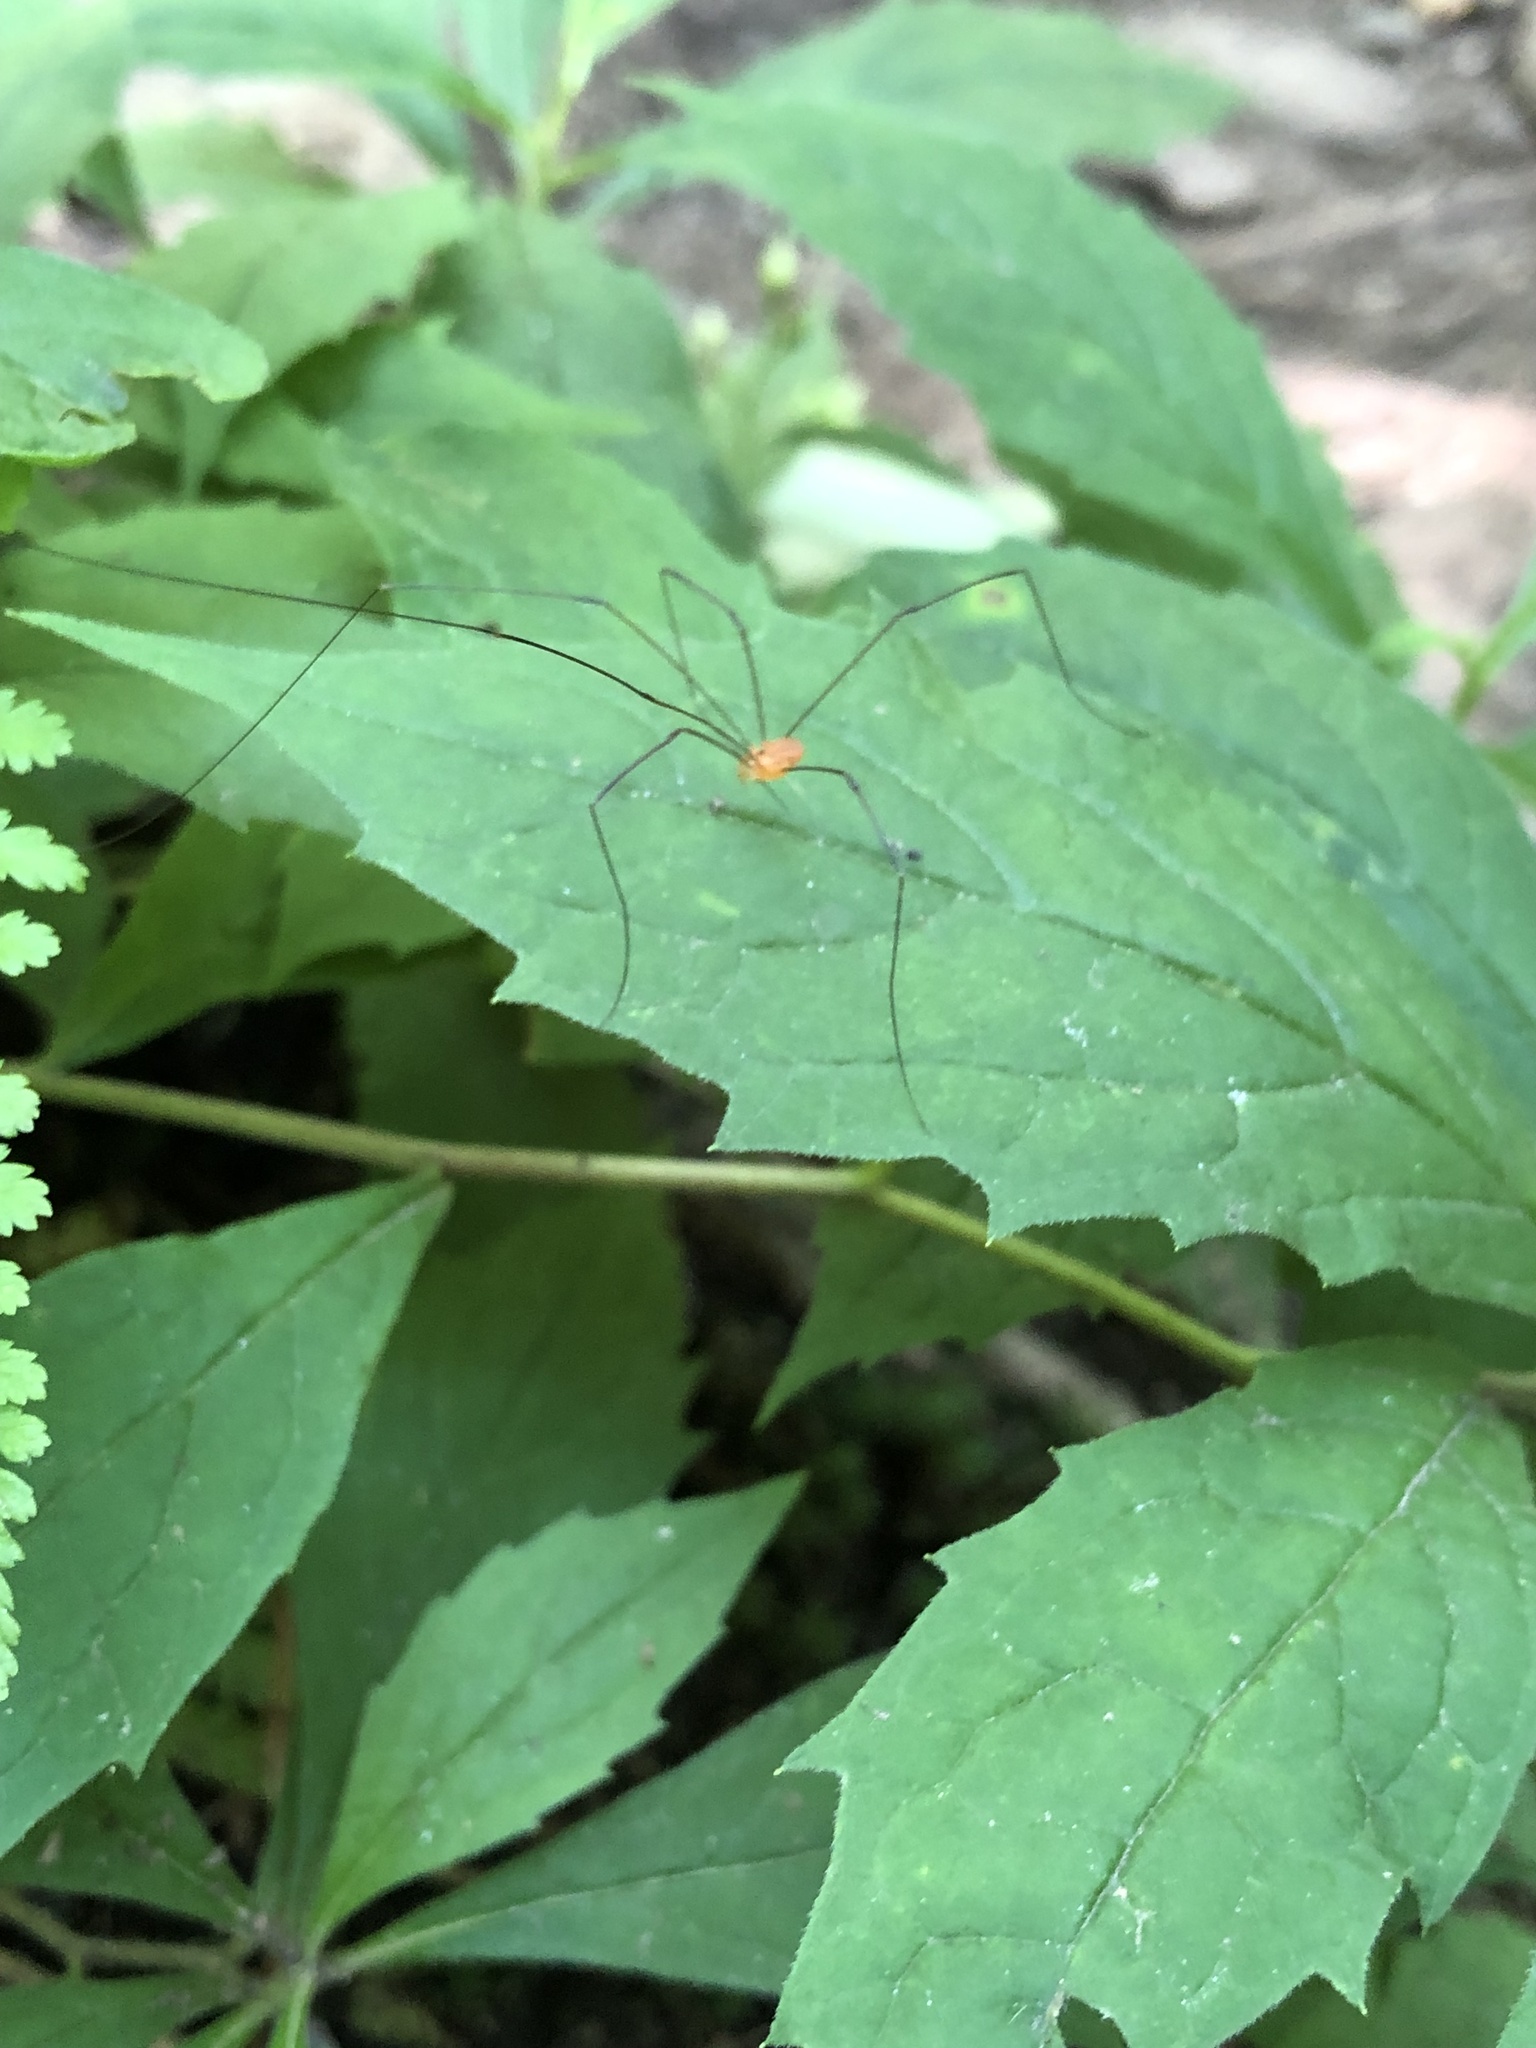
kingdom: Animalia
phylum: Arthropoda
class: Arachnida
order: Opiliones
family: Sclerosomatidae
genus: Leiobunum
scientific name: Leiobunum bracchiolum
